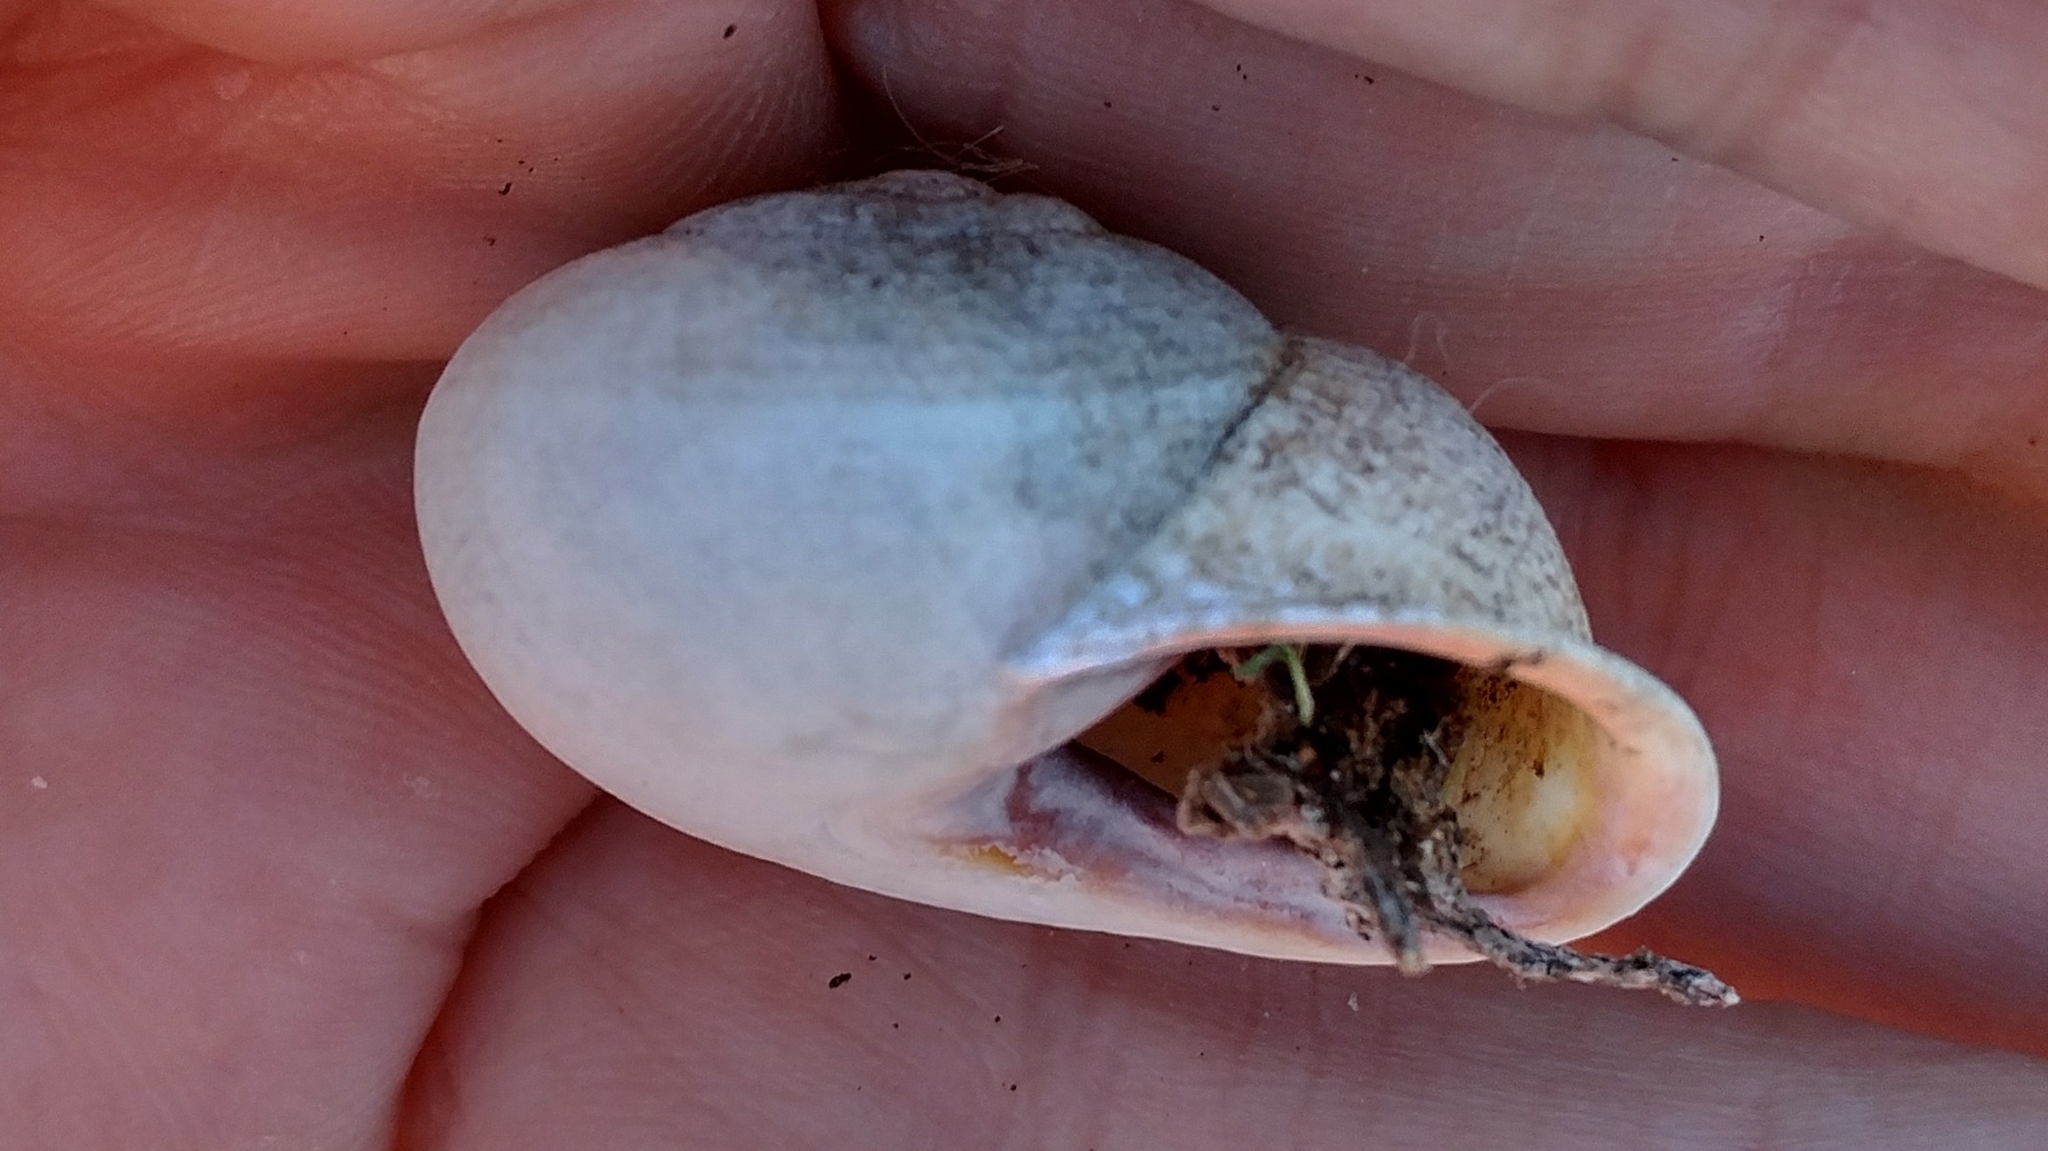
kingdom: Animalia
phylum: Mollusca
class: Gastropoda
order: Stylommatophora
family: Helicidae
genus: Otala
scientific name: Otala lactea
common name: Milk snail
